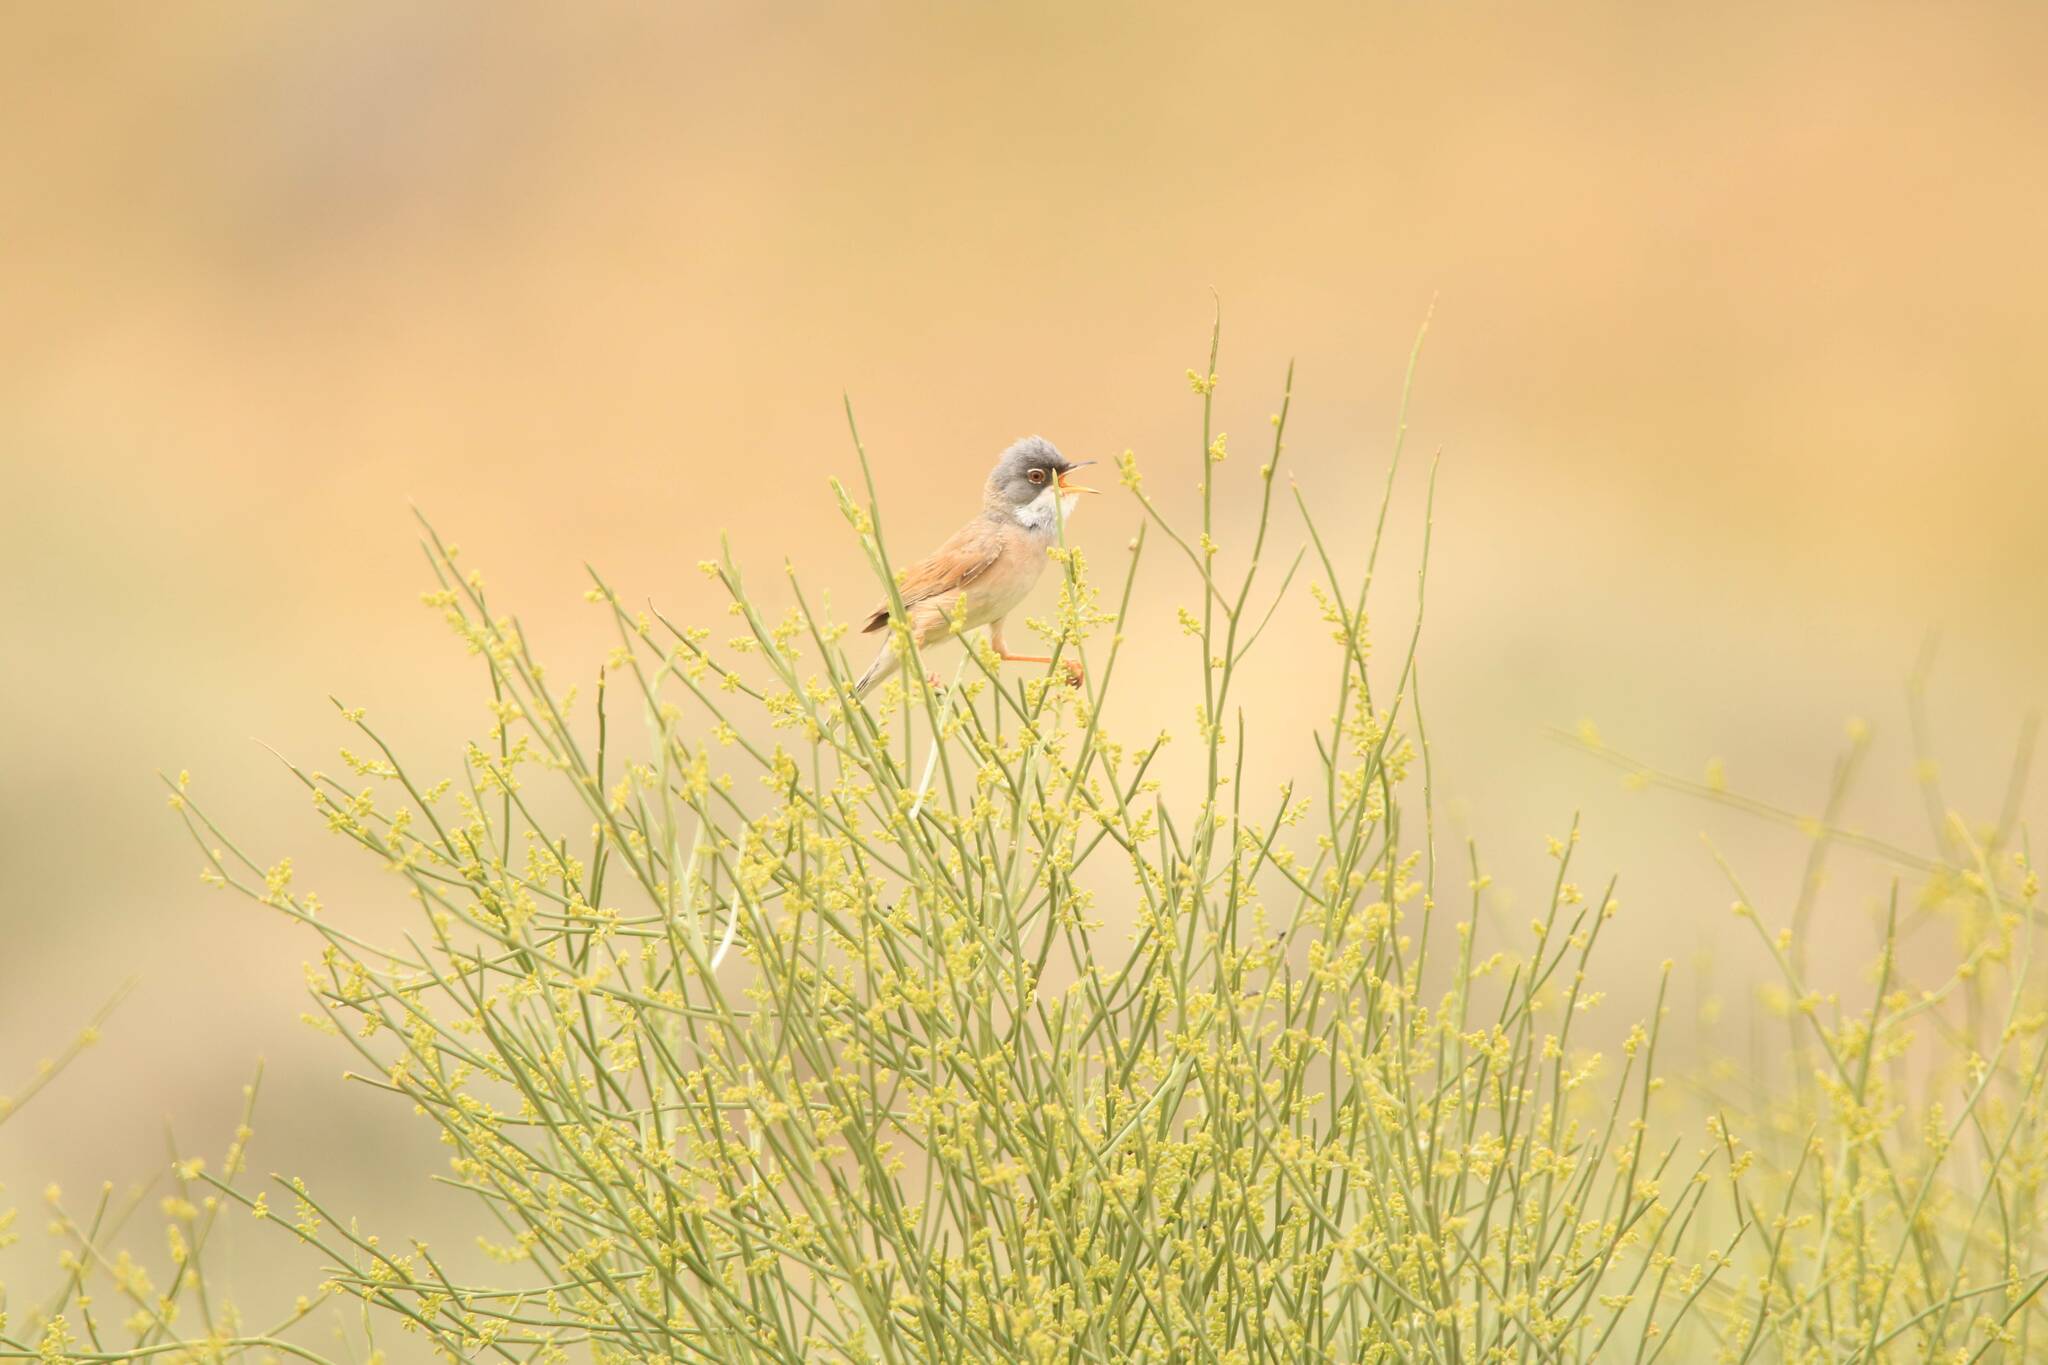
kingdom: Animalia
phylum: Chordata
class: Aves
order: Passeriformes
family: Sylviidae
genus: Sylvia
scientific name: Sylvia conspicillata
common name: Spectacled warbler
